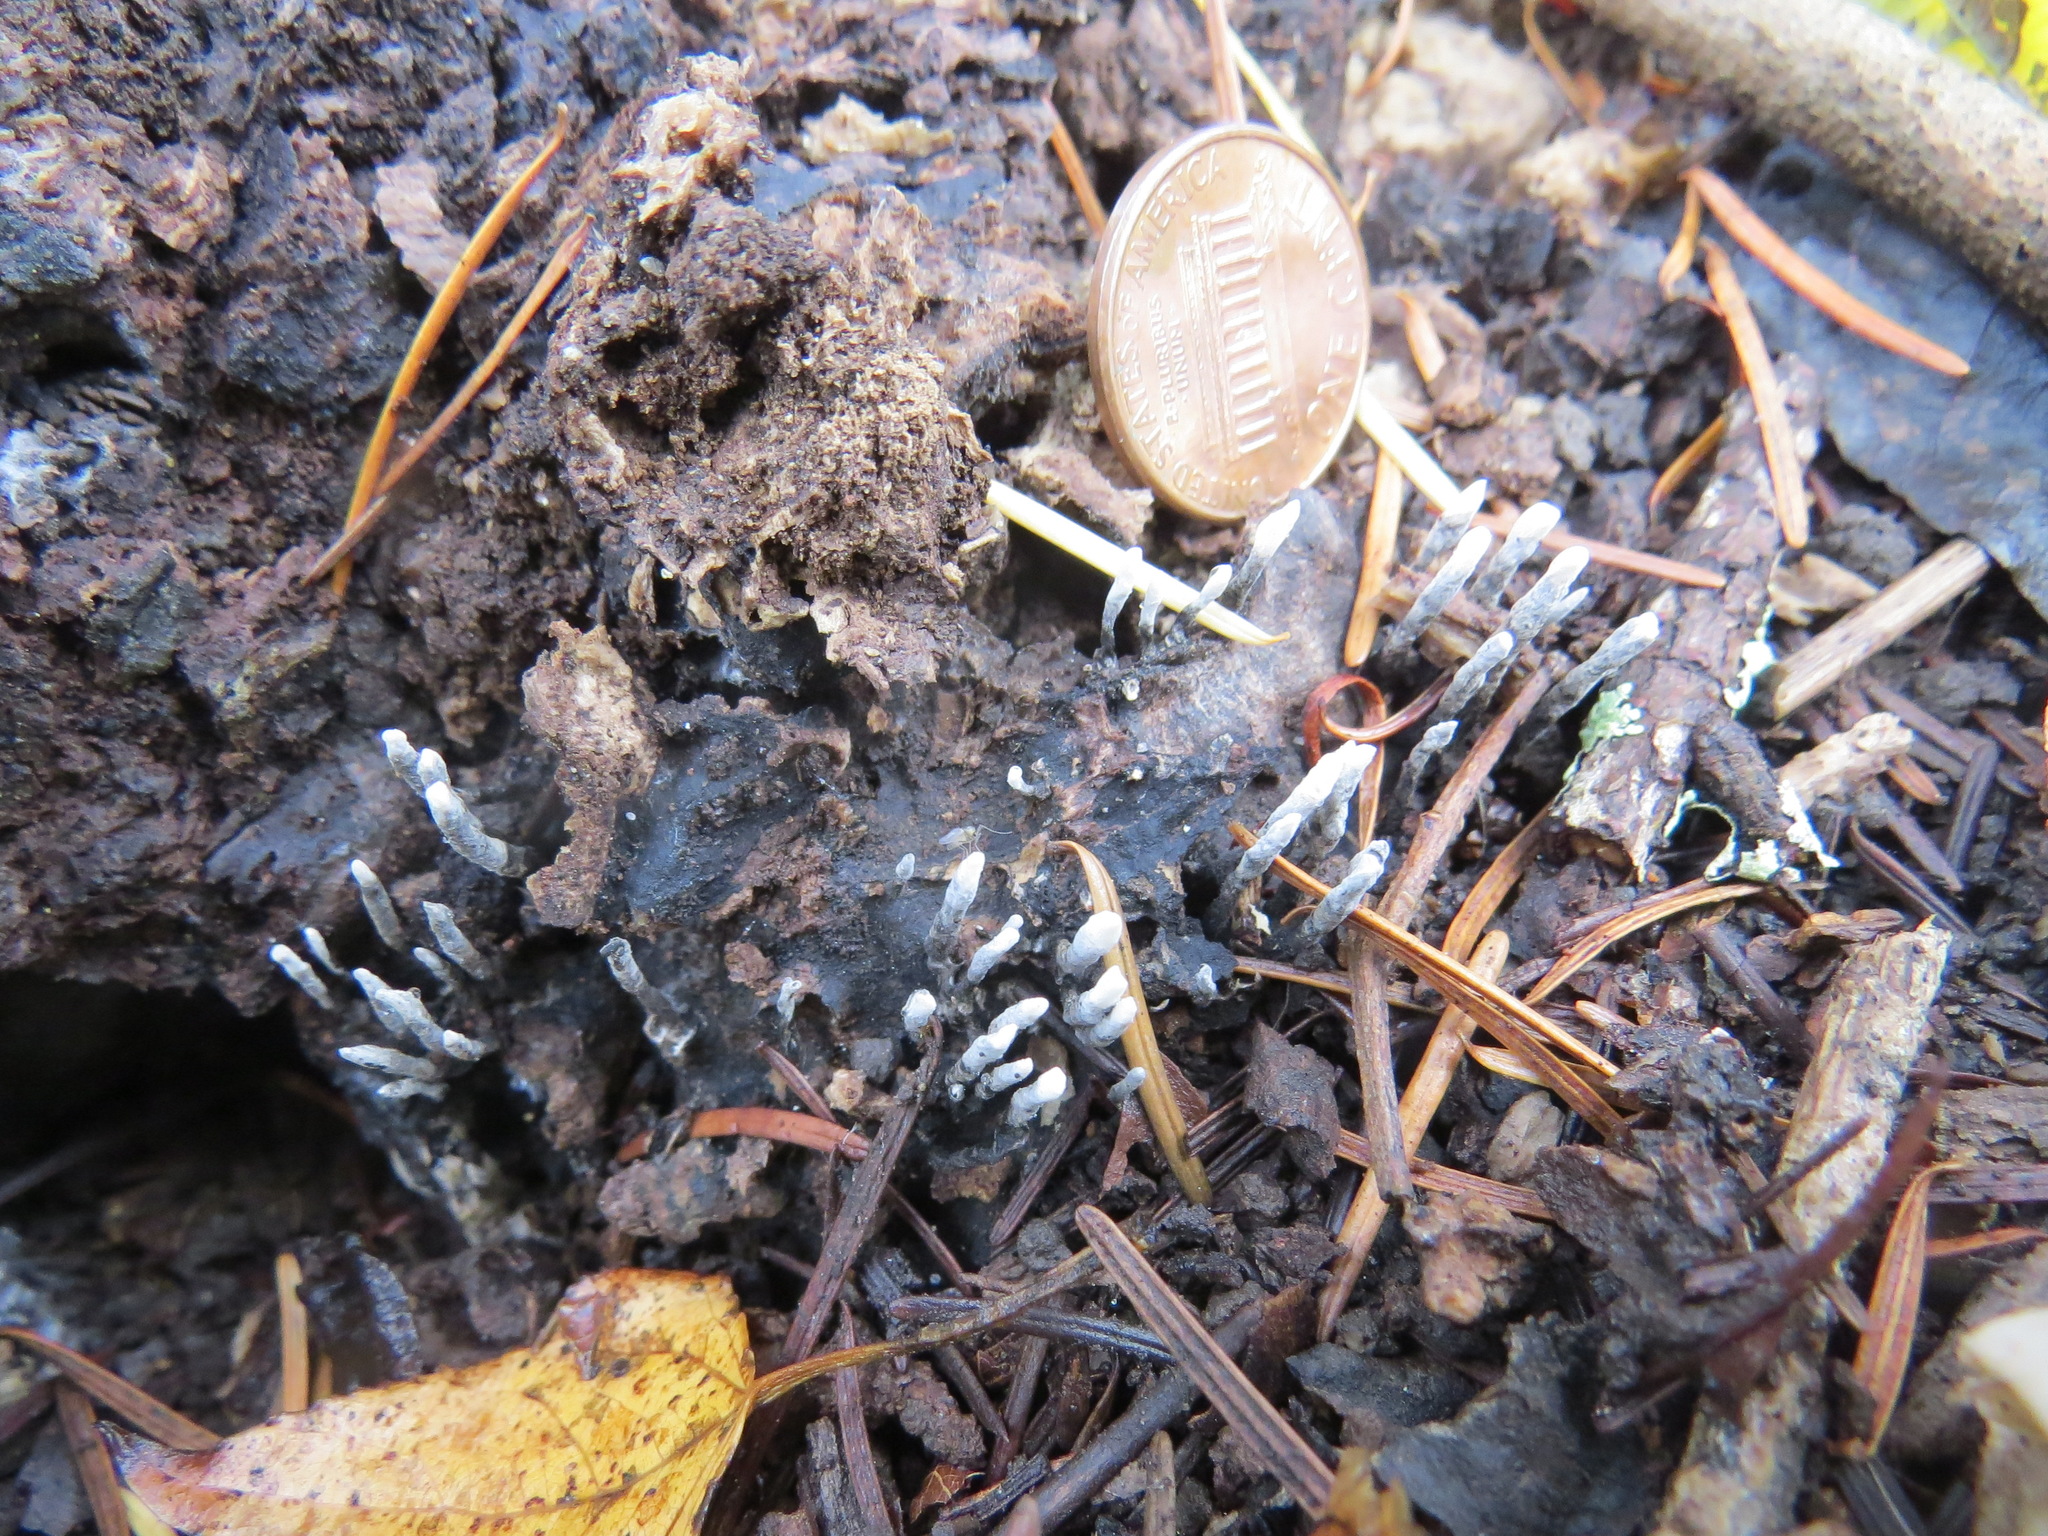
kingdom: Fungi
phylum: Ascomycota
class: Sordariomycetes
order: Xylariales
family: Xylariaceae
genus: Xylaria
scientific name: Xylaria hypoxylon
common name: Candle-snuff fungus
